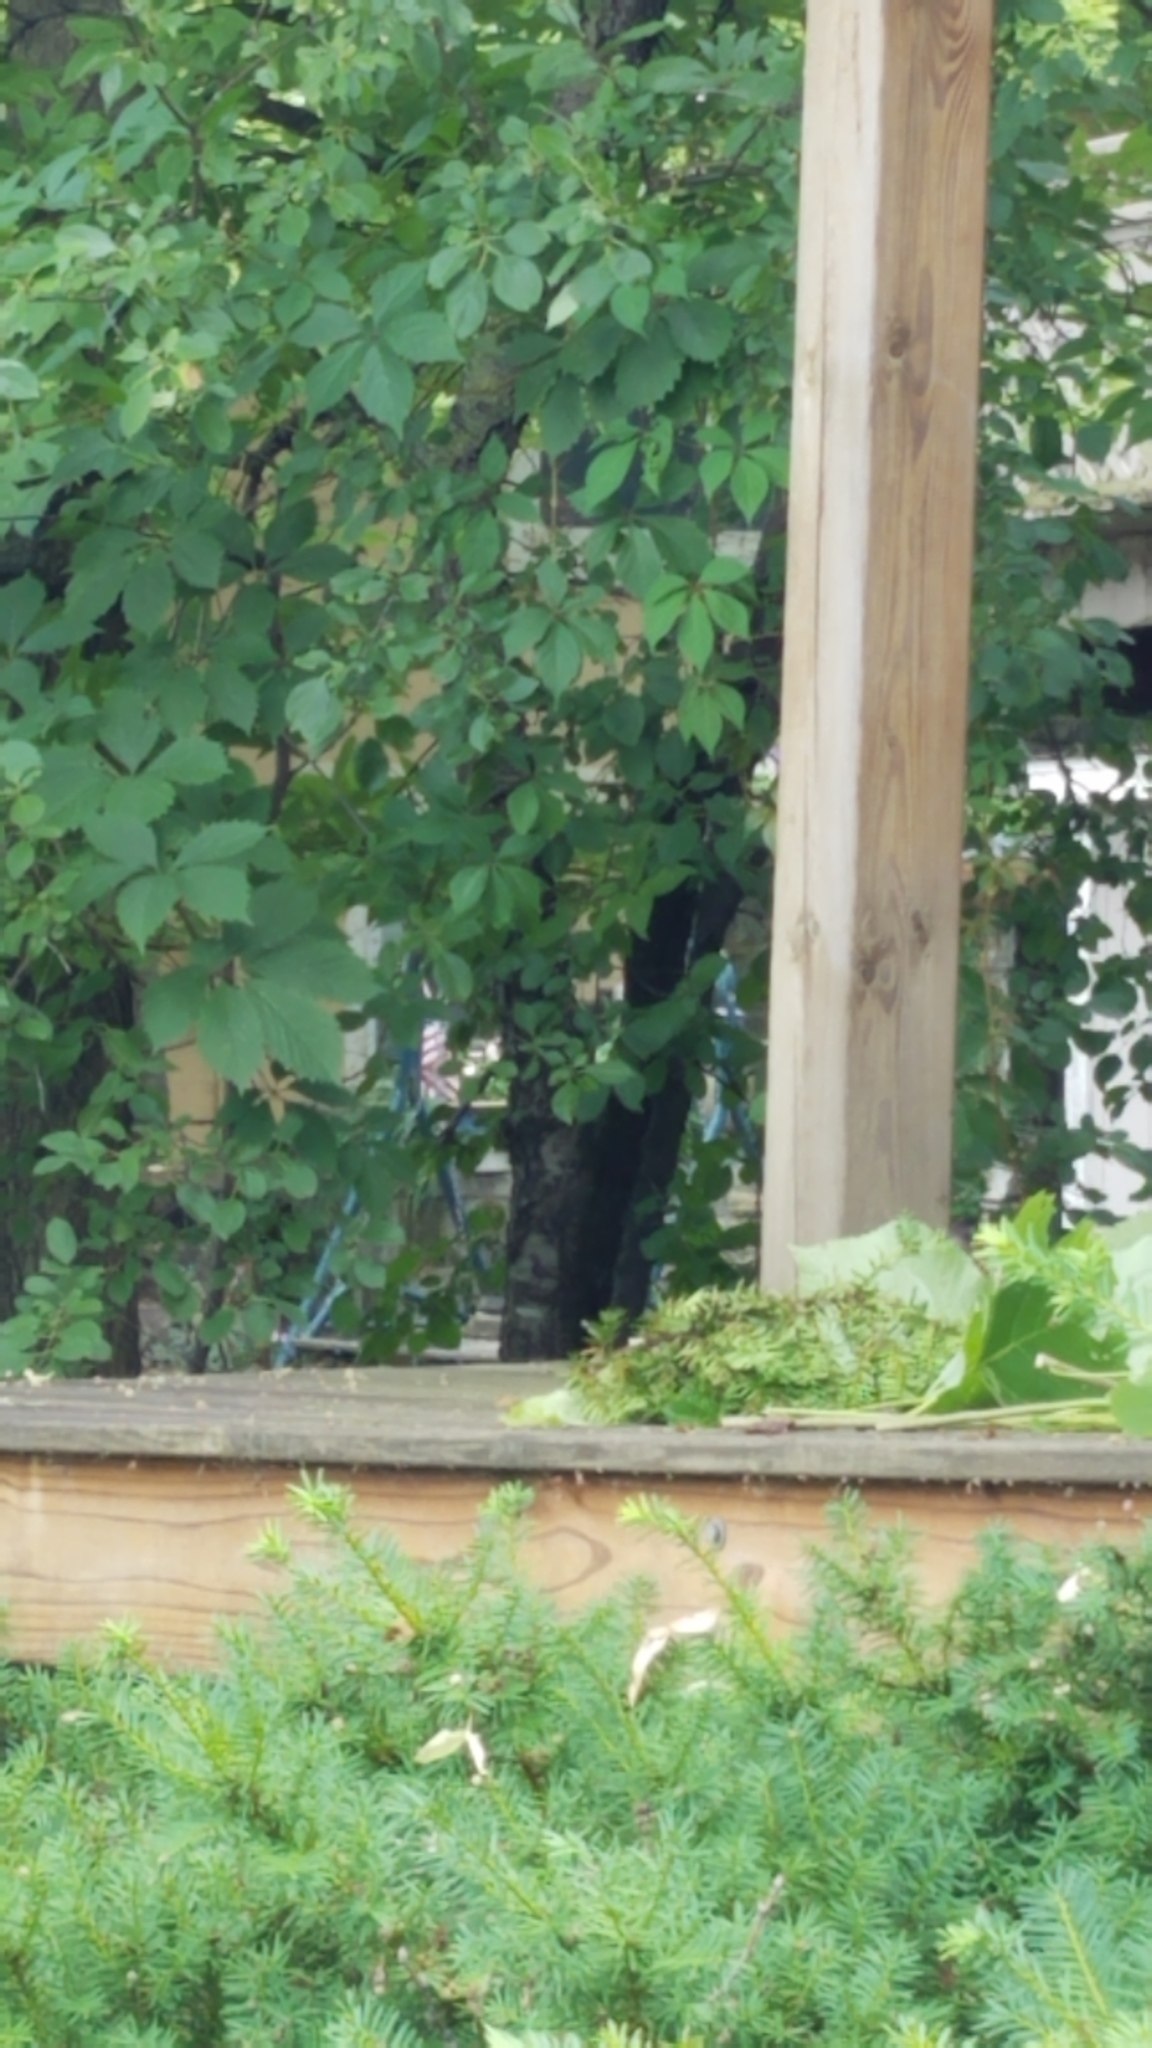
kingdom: Animalia
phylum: Chordata
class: Aves
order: Passeriformes
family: Turdidae
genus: Turdus
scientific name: Turdus migratorius
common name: American robin
